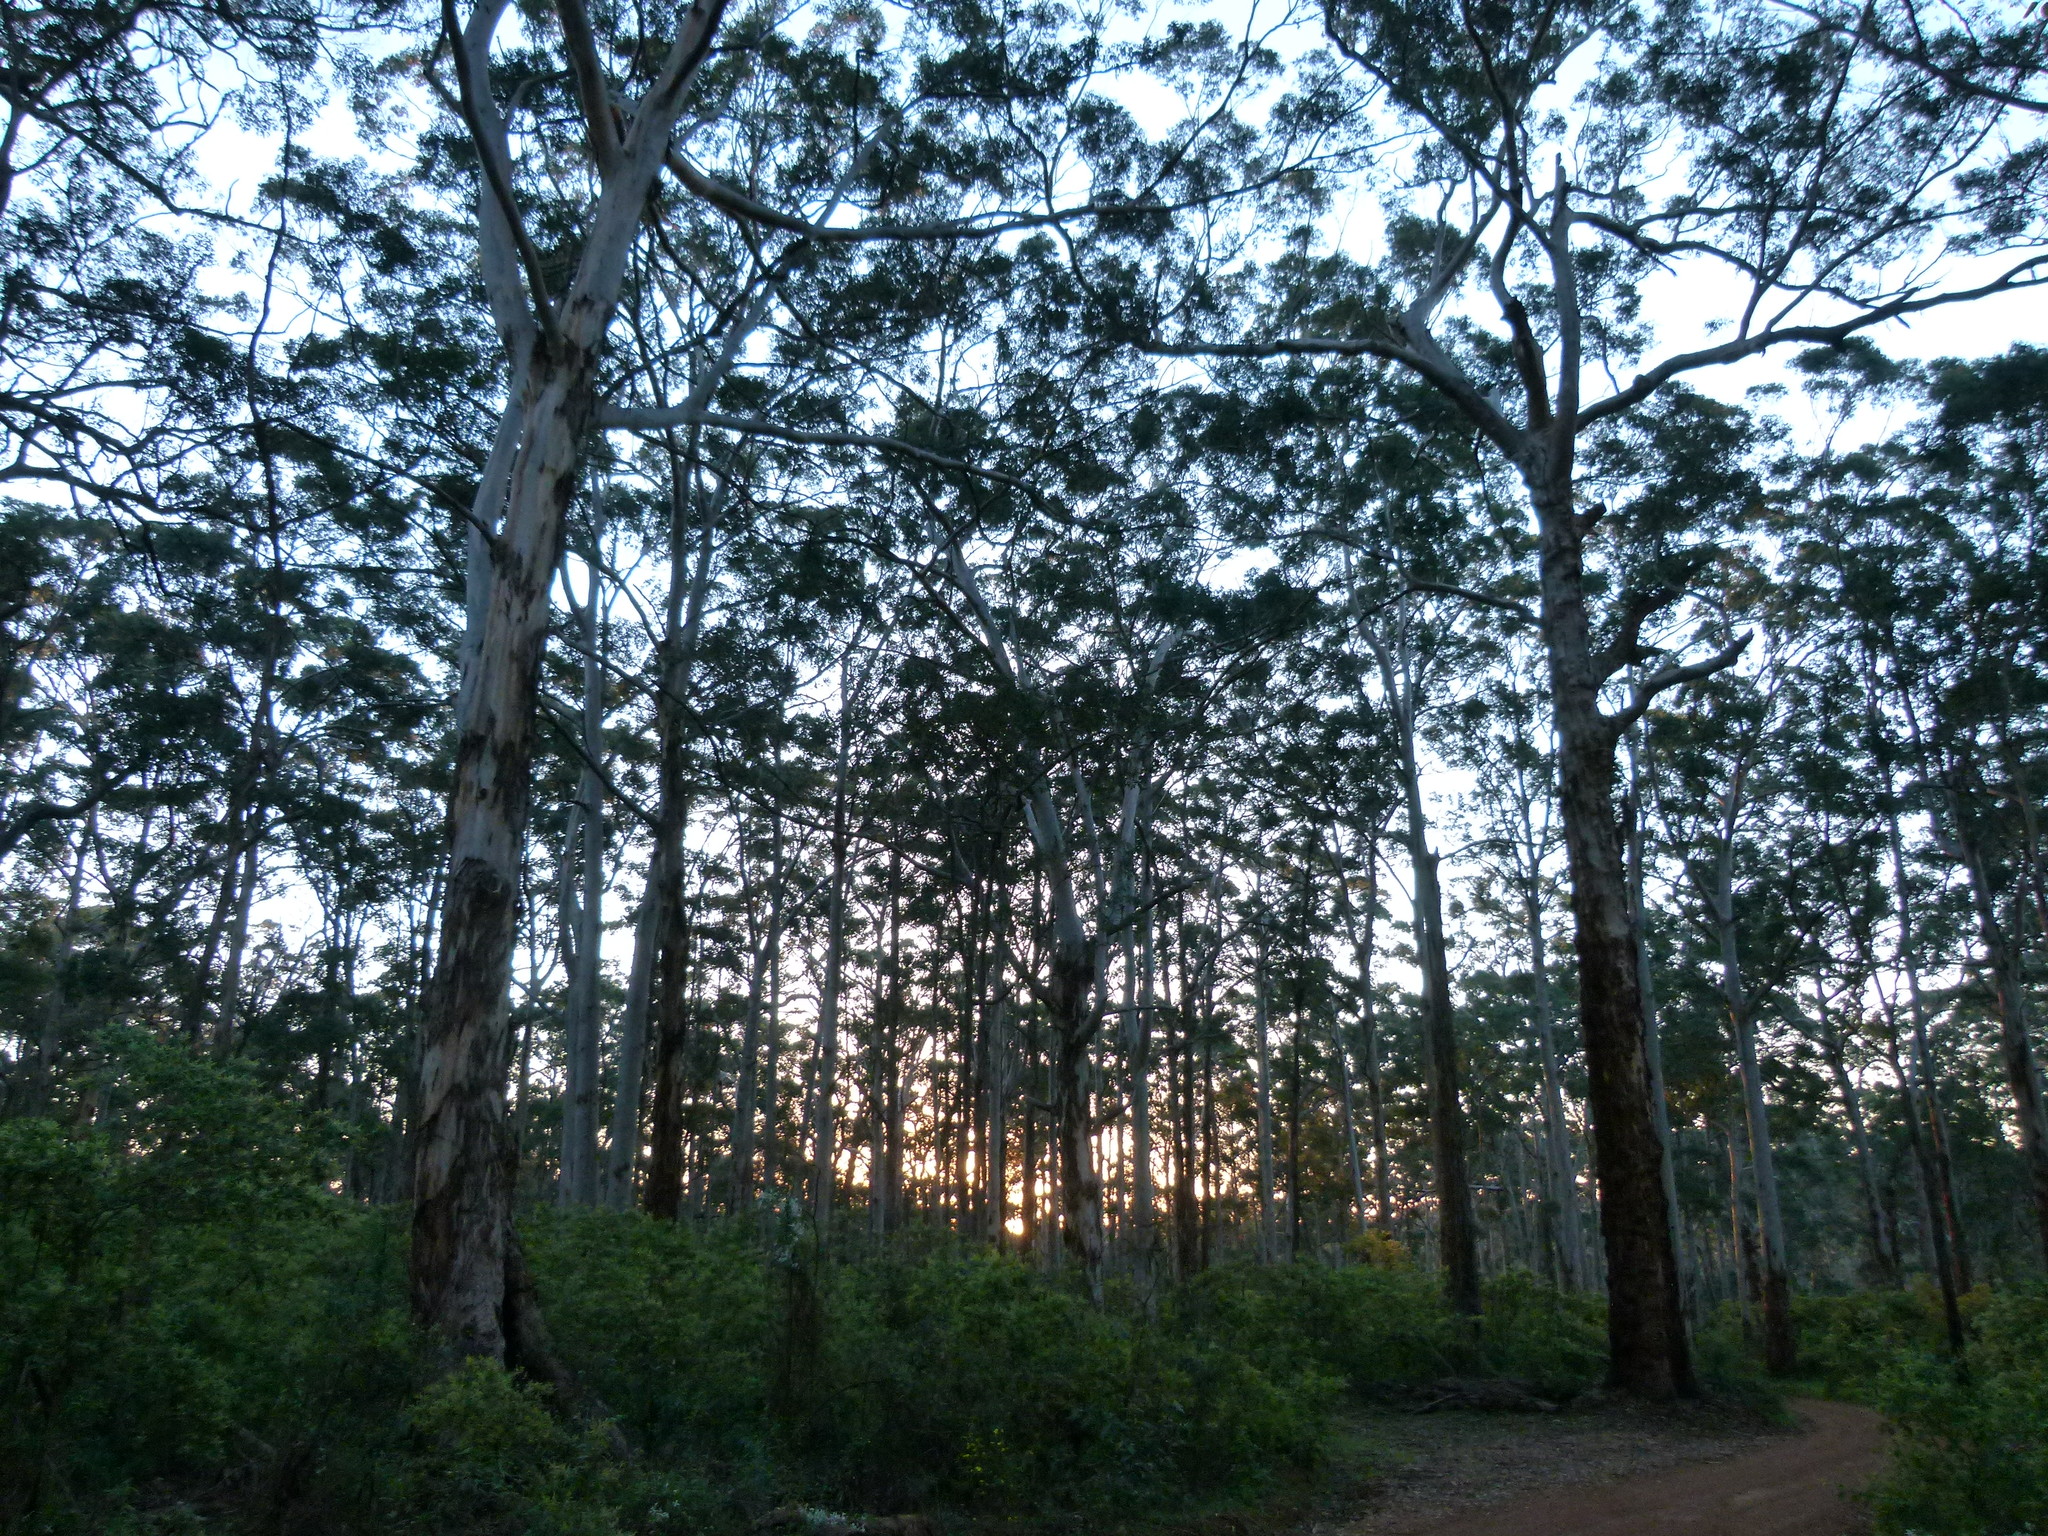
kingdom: Plantae
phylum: Tracheophyta
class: Magnoliopsida
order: Myrtales
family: Myrtaceae
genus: Eucalyptus
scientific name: Eucalyptus diversicolor
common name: Karri
